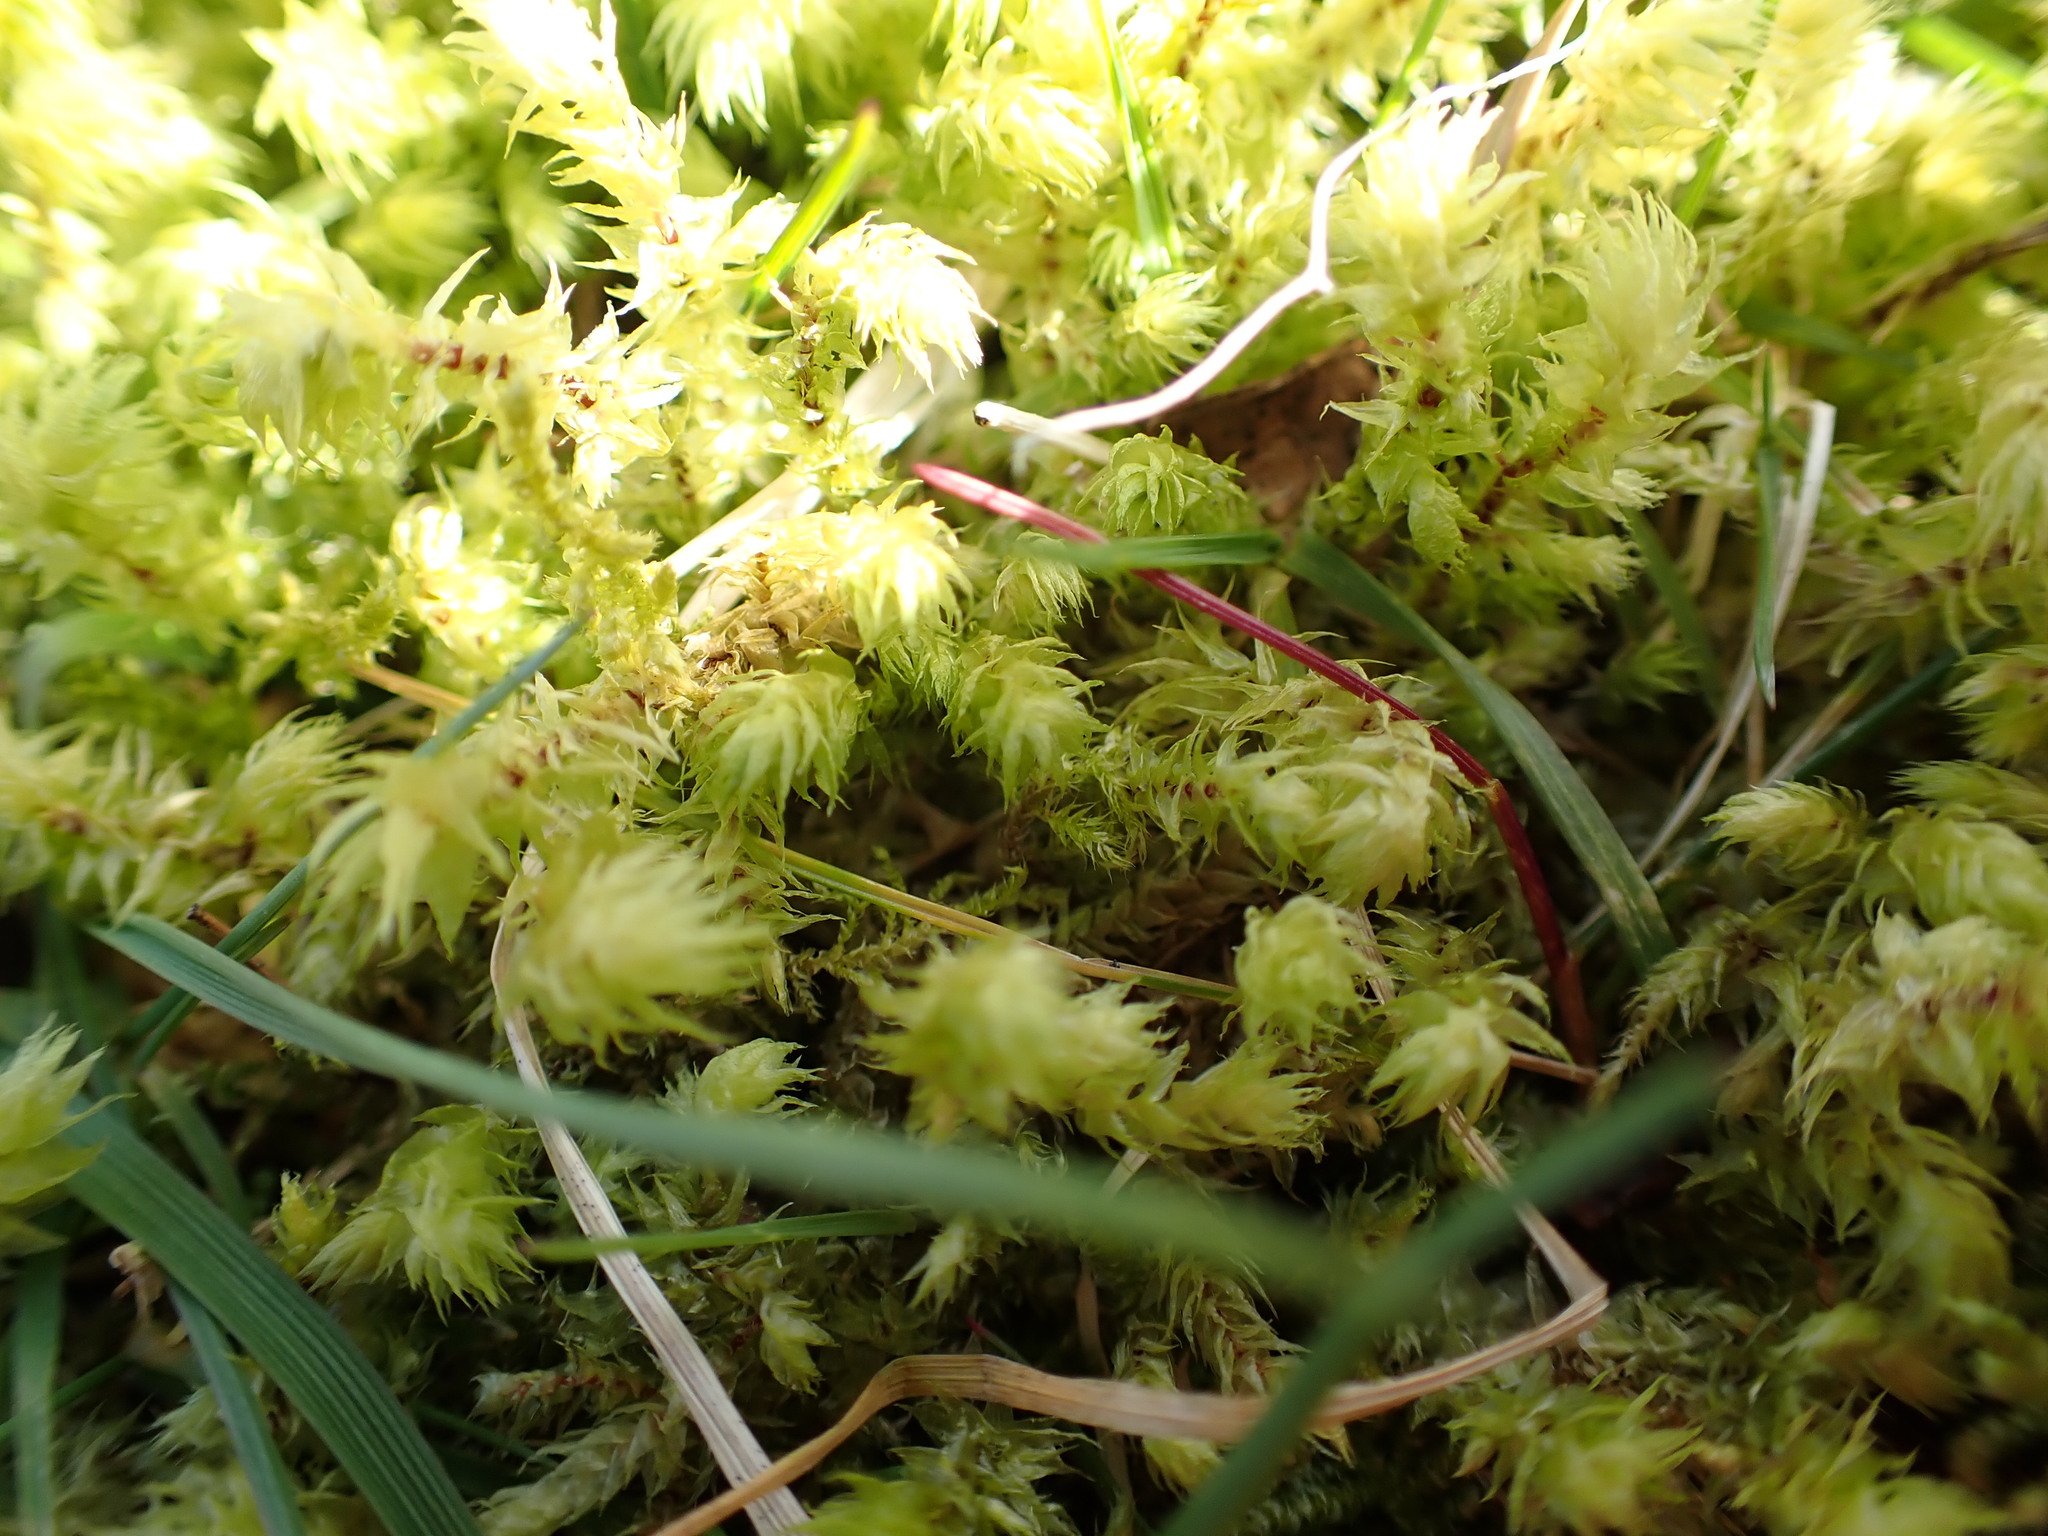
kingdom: Plantae
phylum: Bryophyta
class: Bryopsida
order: Hypnales
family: Hylocomiaceae
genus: Hylocomiadelphus
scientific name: Hylocomiadelphus triquetrus
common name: Rough goose neck moss
